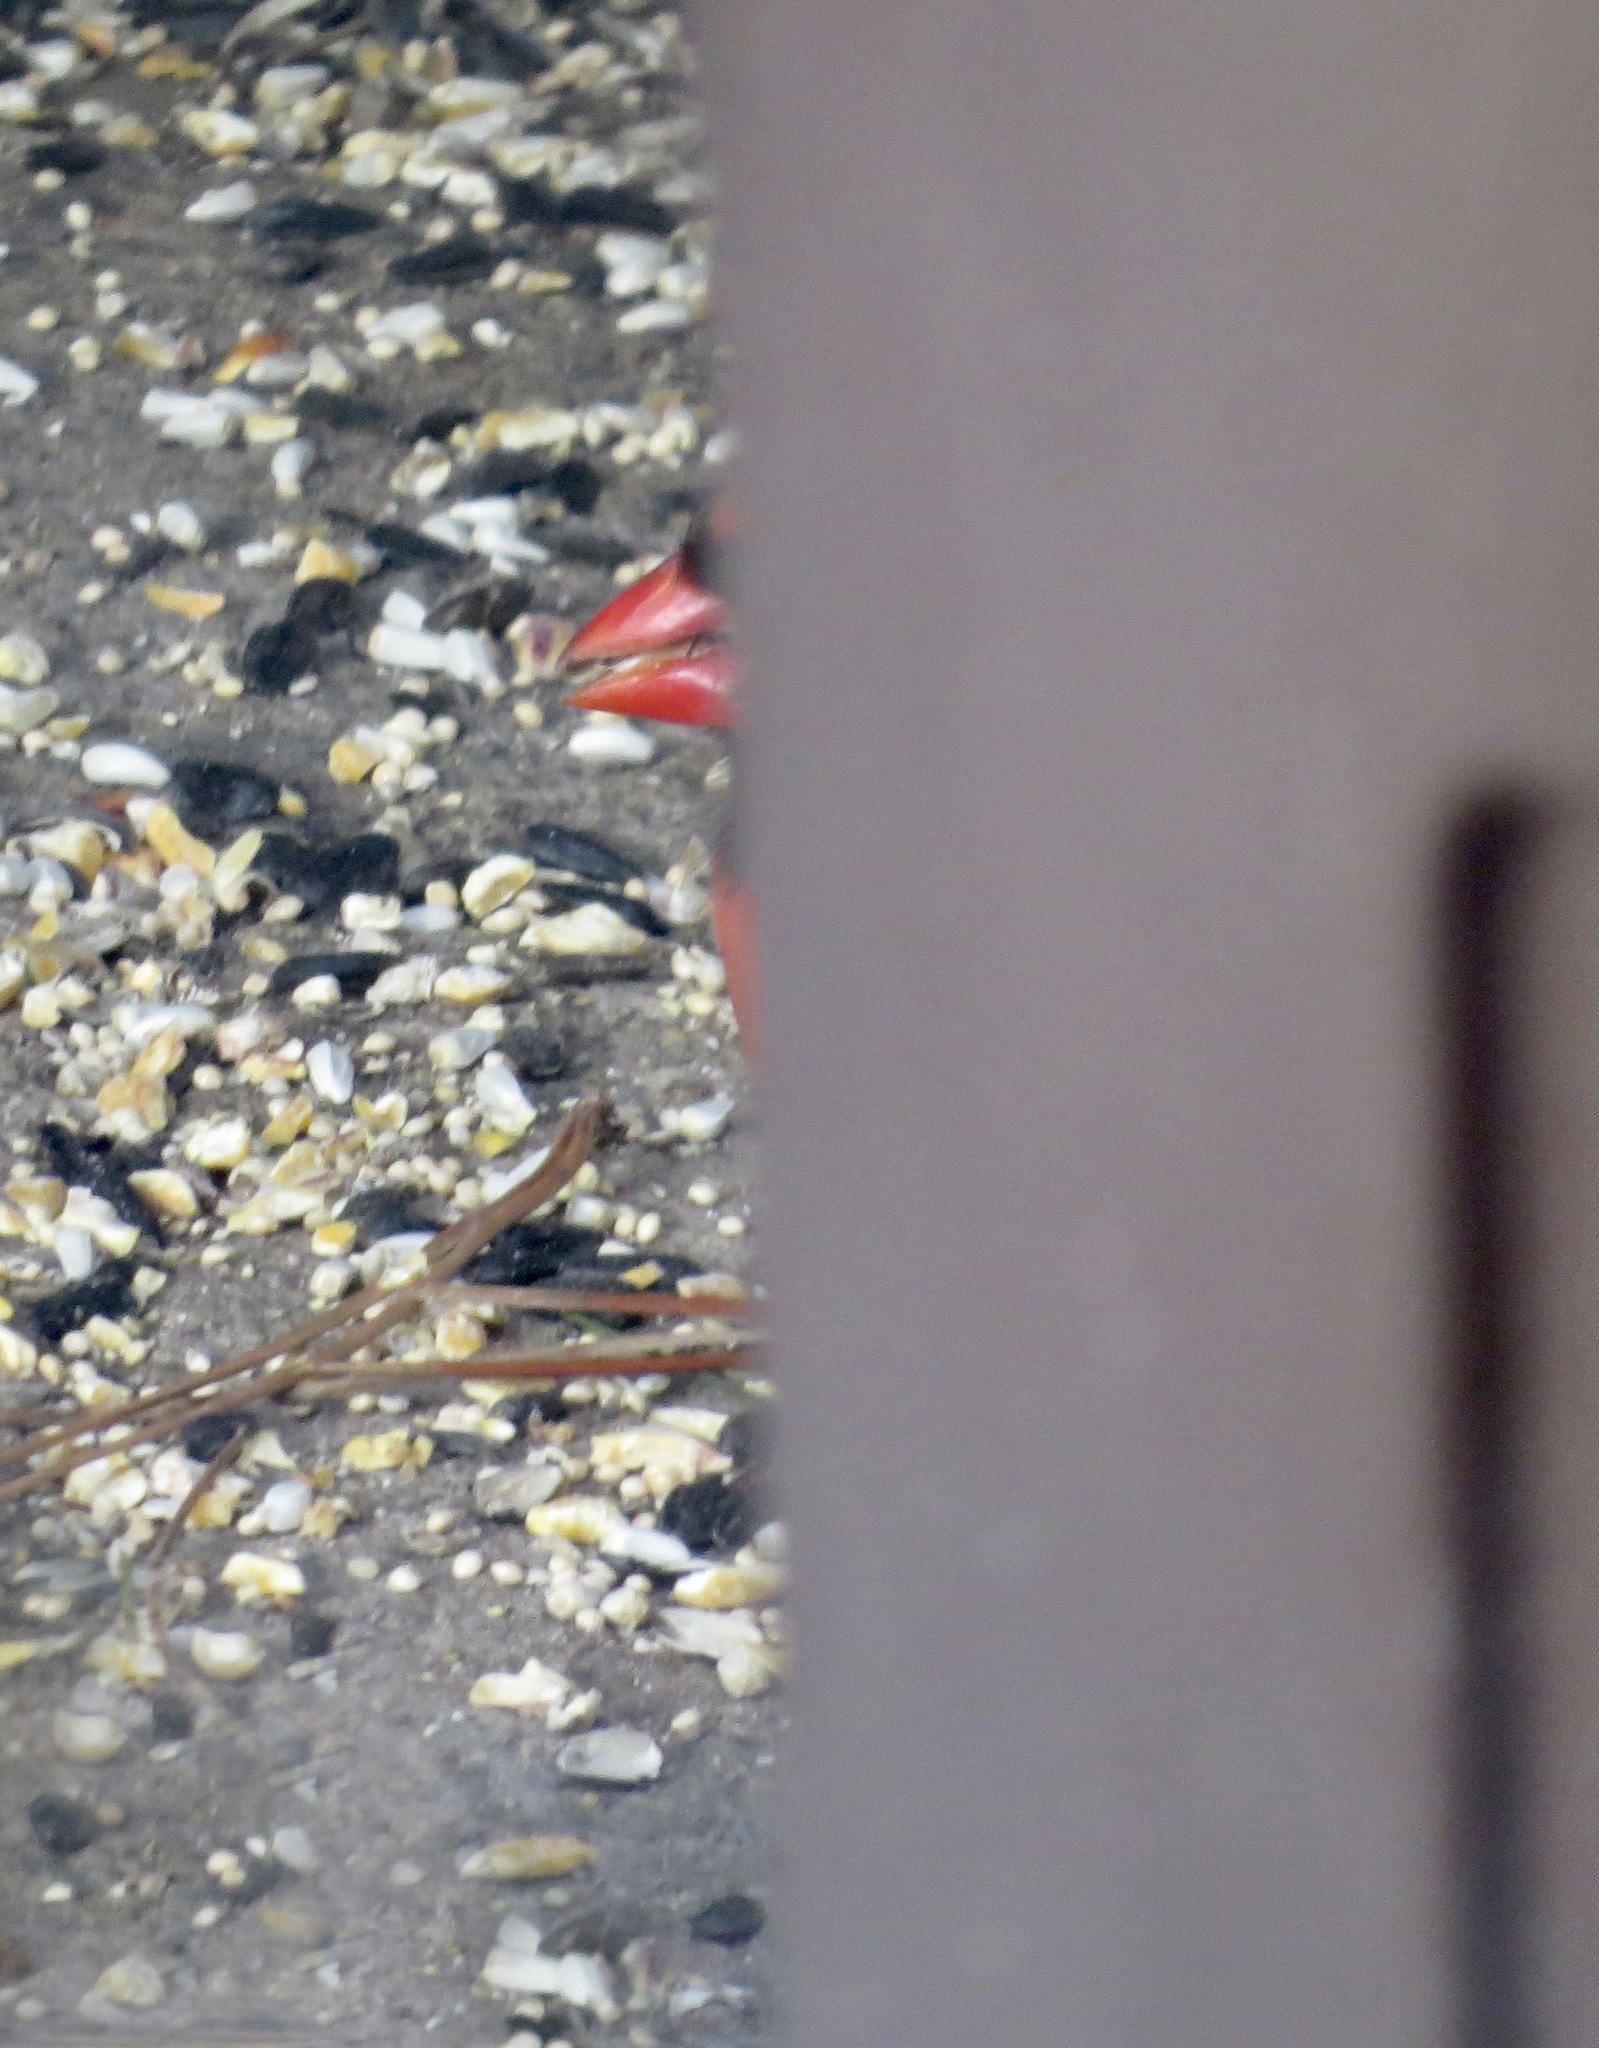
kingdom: Animalia
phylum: Chordata
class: Aves
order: Passeriformes
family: Cardinalidae
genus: Cardinalis
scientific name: Cardinalis cardinalis
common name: Northern cardinal
